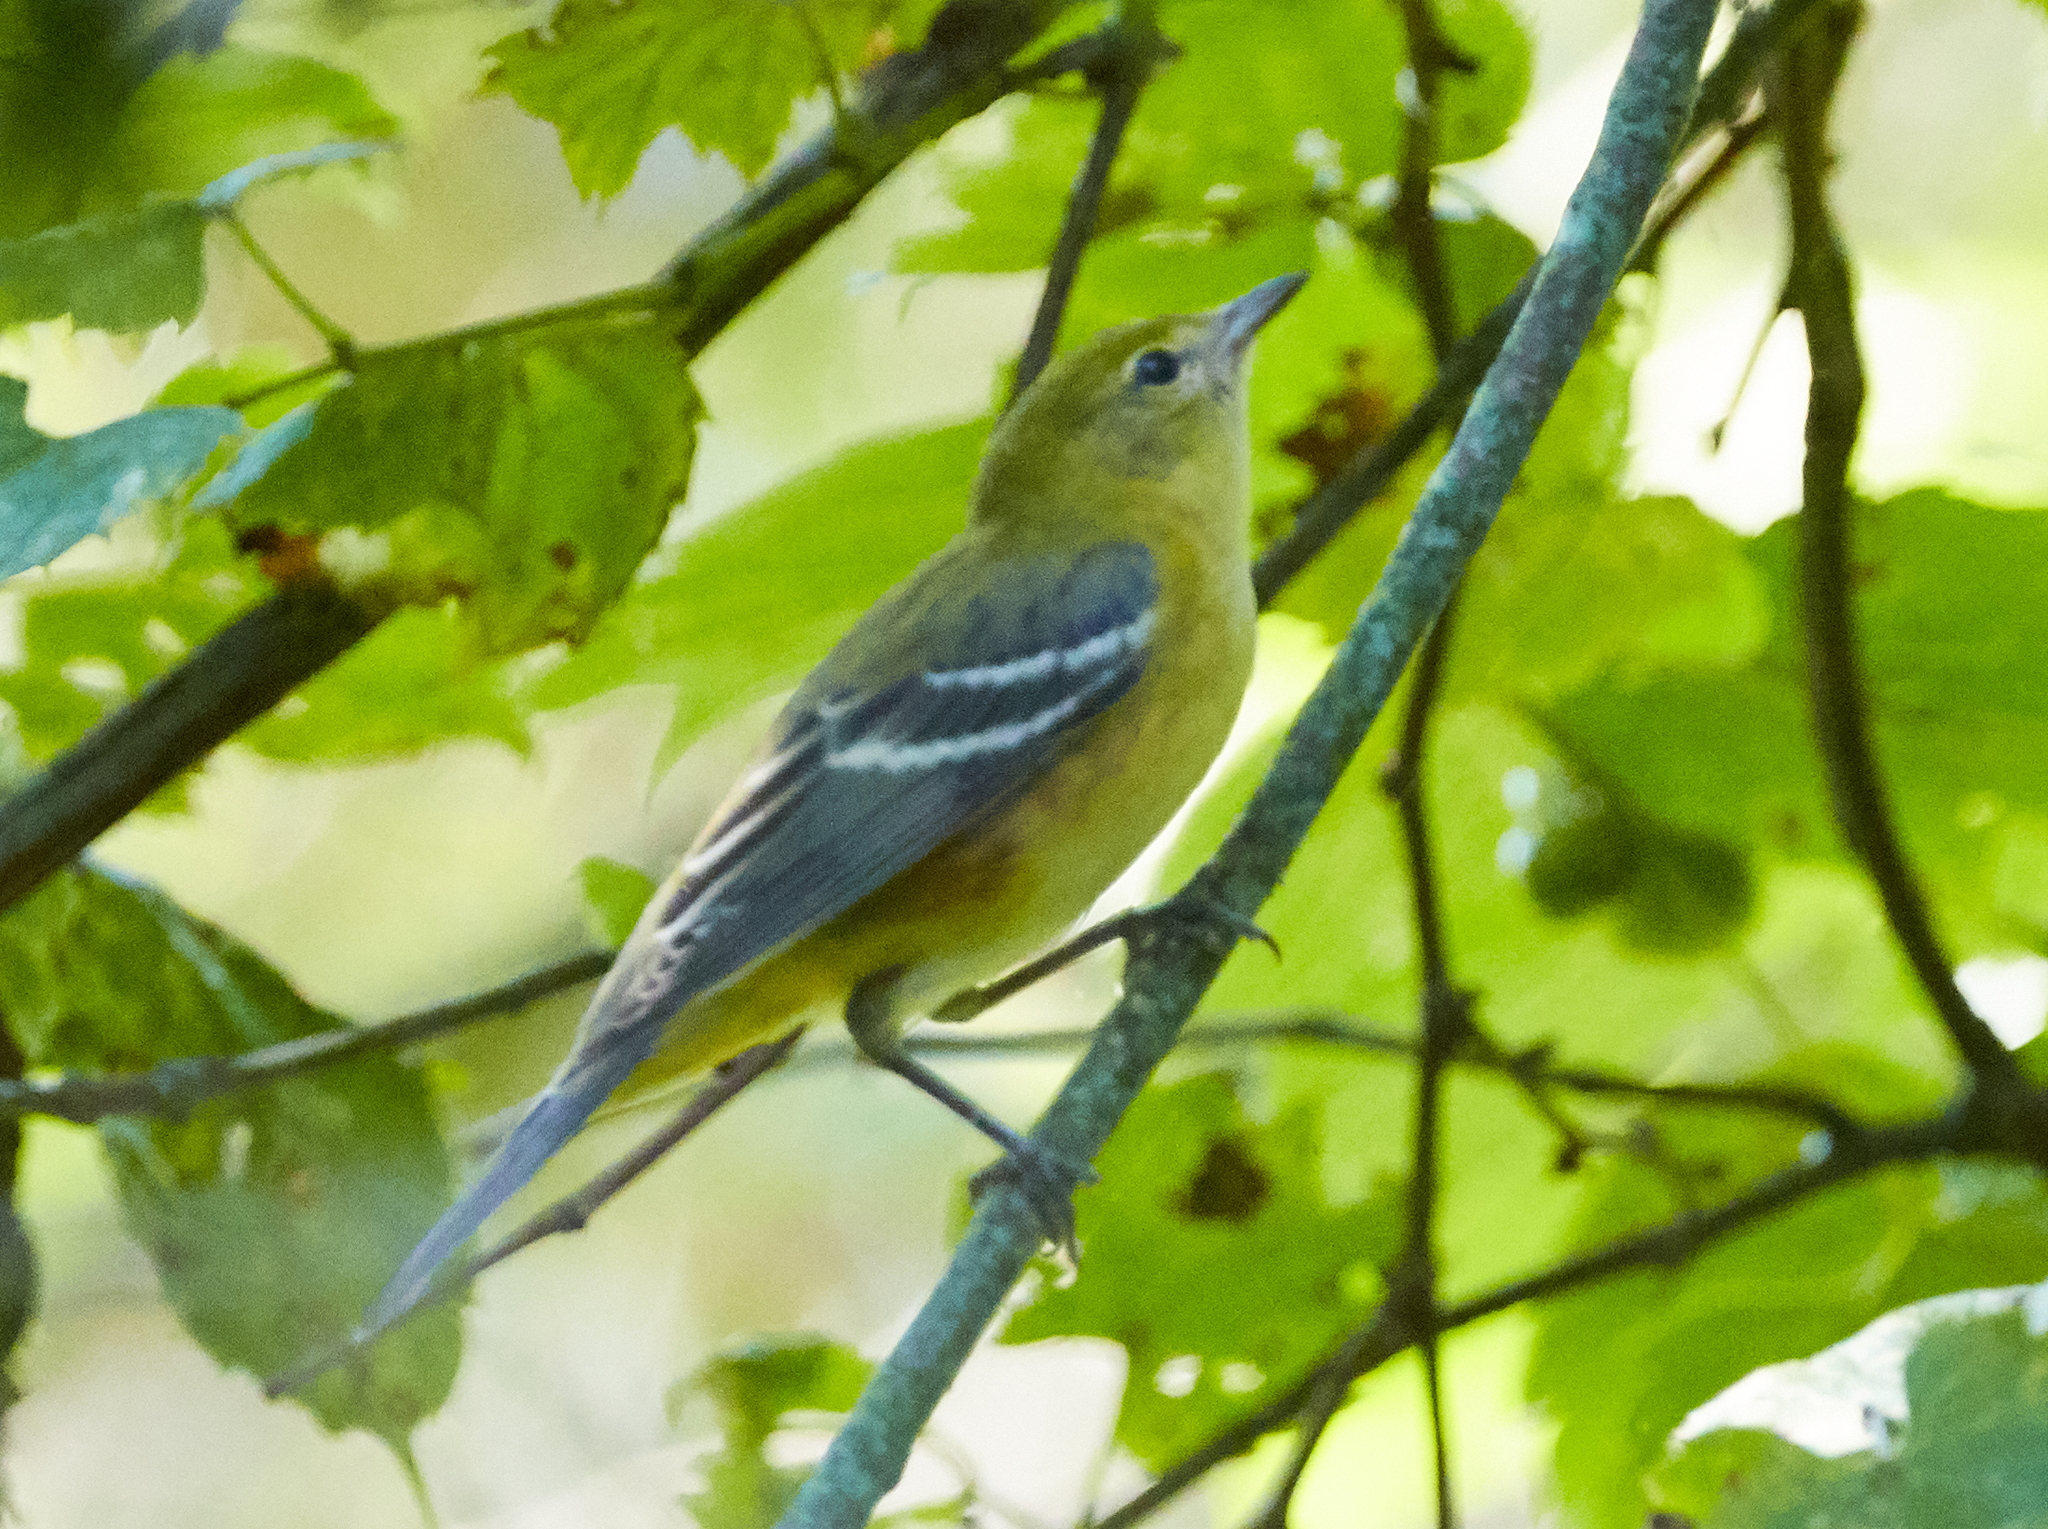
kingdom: Animalia
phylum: Chordata
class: Aves
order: Passeriformes
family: Parulidae
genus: Setophaga
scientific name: Setophaga castanea
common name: Bay-breasted warbler
